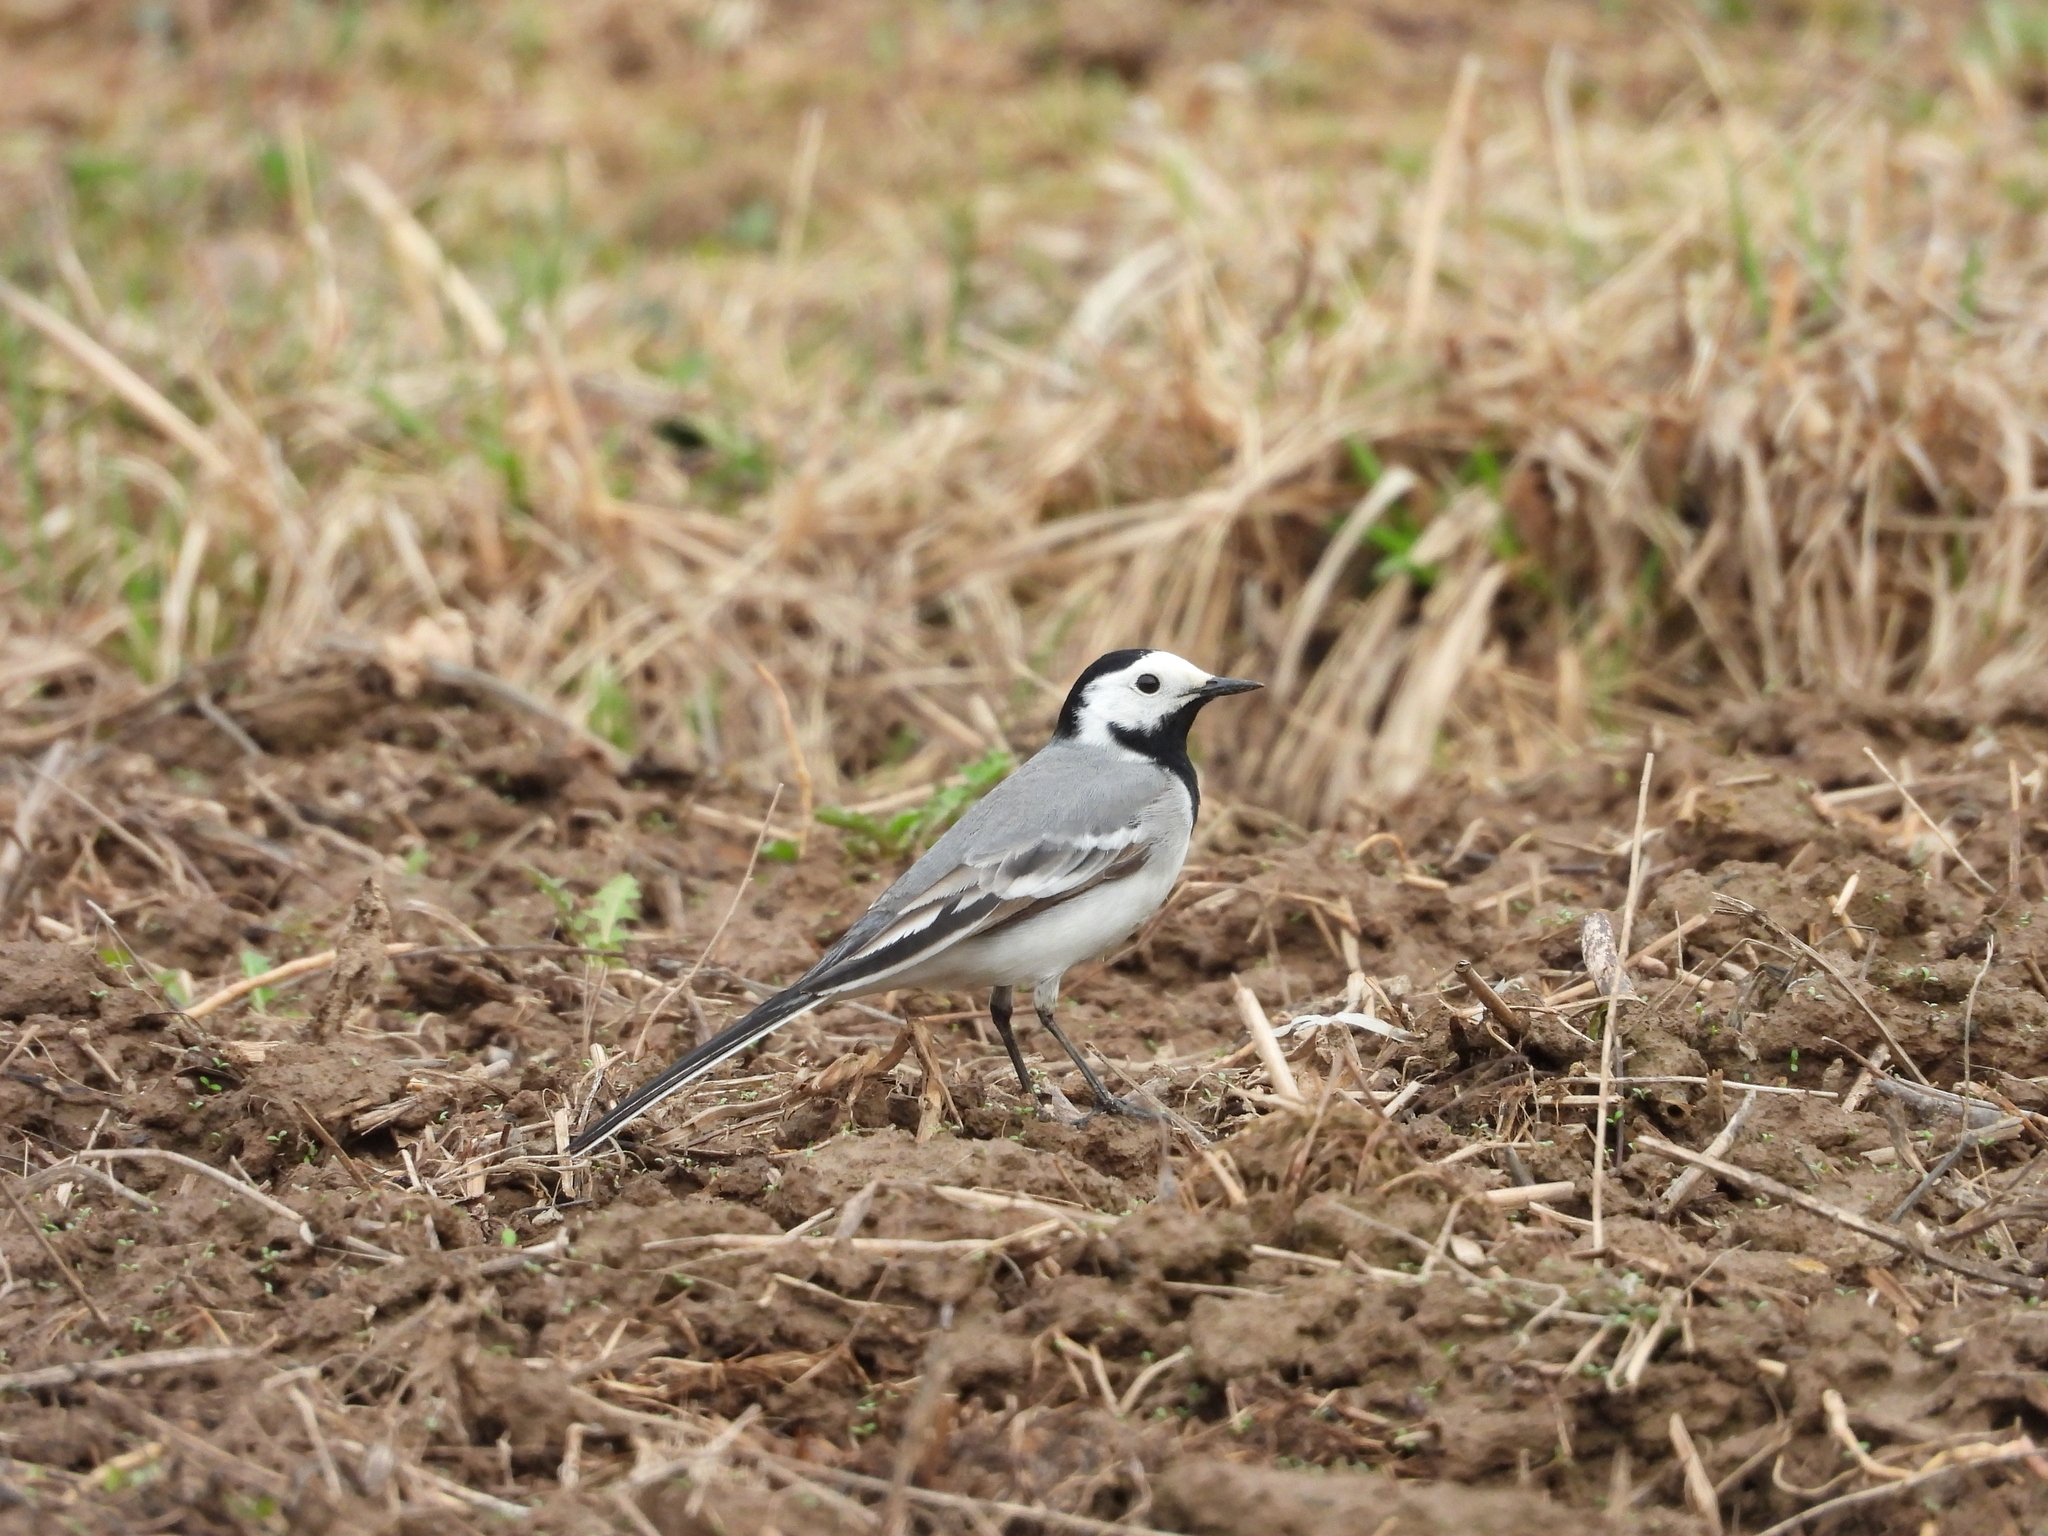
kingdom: Animalia
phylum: Chordata
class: Aves
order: Passeriformes
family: Motacillidae
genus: Motacilla
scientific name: Motacilla alba
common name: White wagtail
